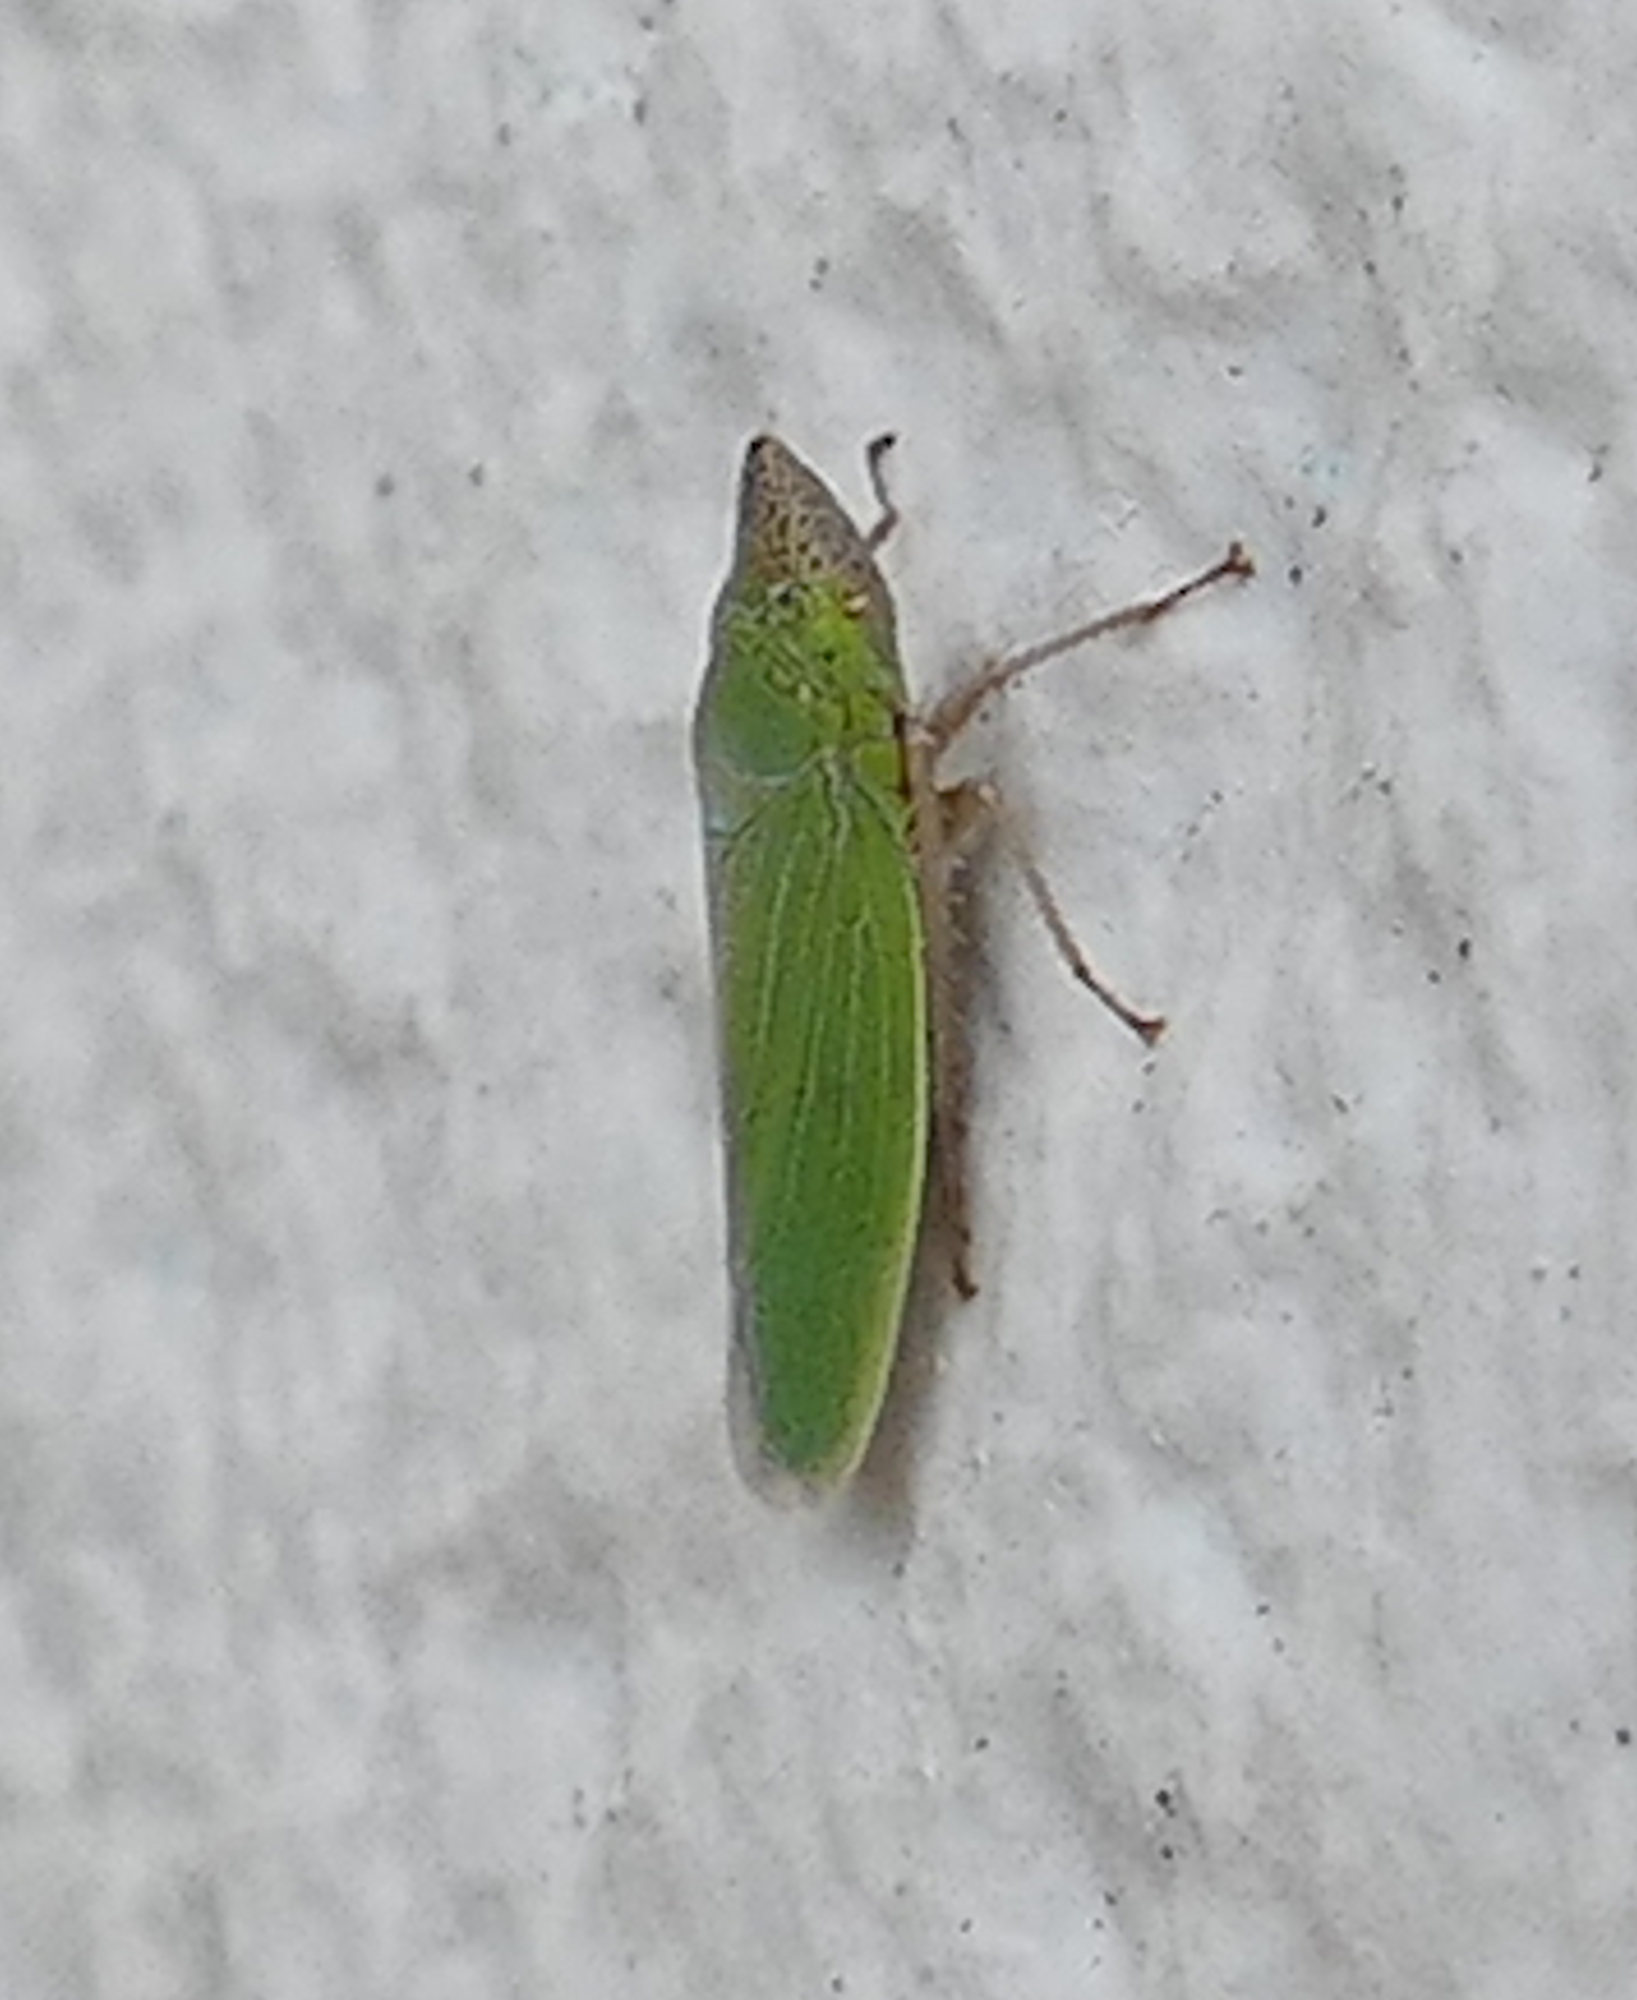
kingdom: Animalia
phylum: Arthropoda
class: Insecta
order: Hemiptera
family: Cicadellidae
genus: Draeculacephala
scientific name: Draeculacephala floridana
